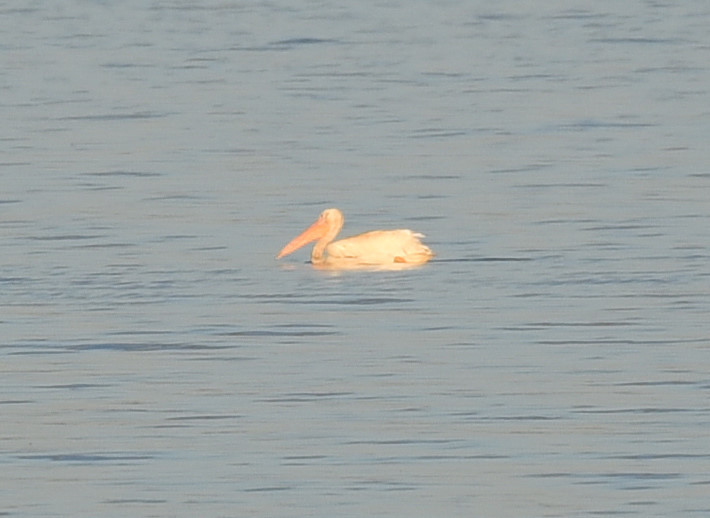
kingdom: Animalia
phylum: Chordata
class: Aves
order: Pelecaniformes
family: Pelecanidae
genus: Pelecanus
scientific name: Pelecanus erythrorhynchos
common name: American white pelican
